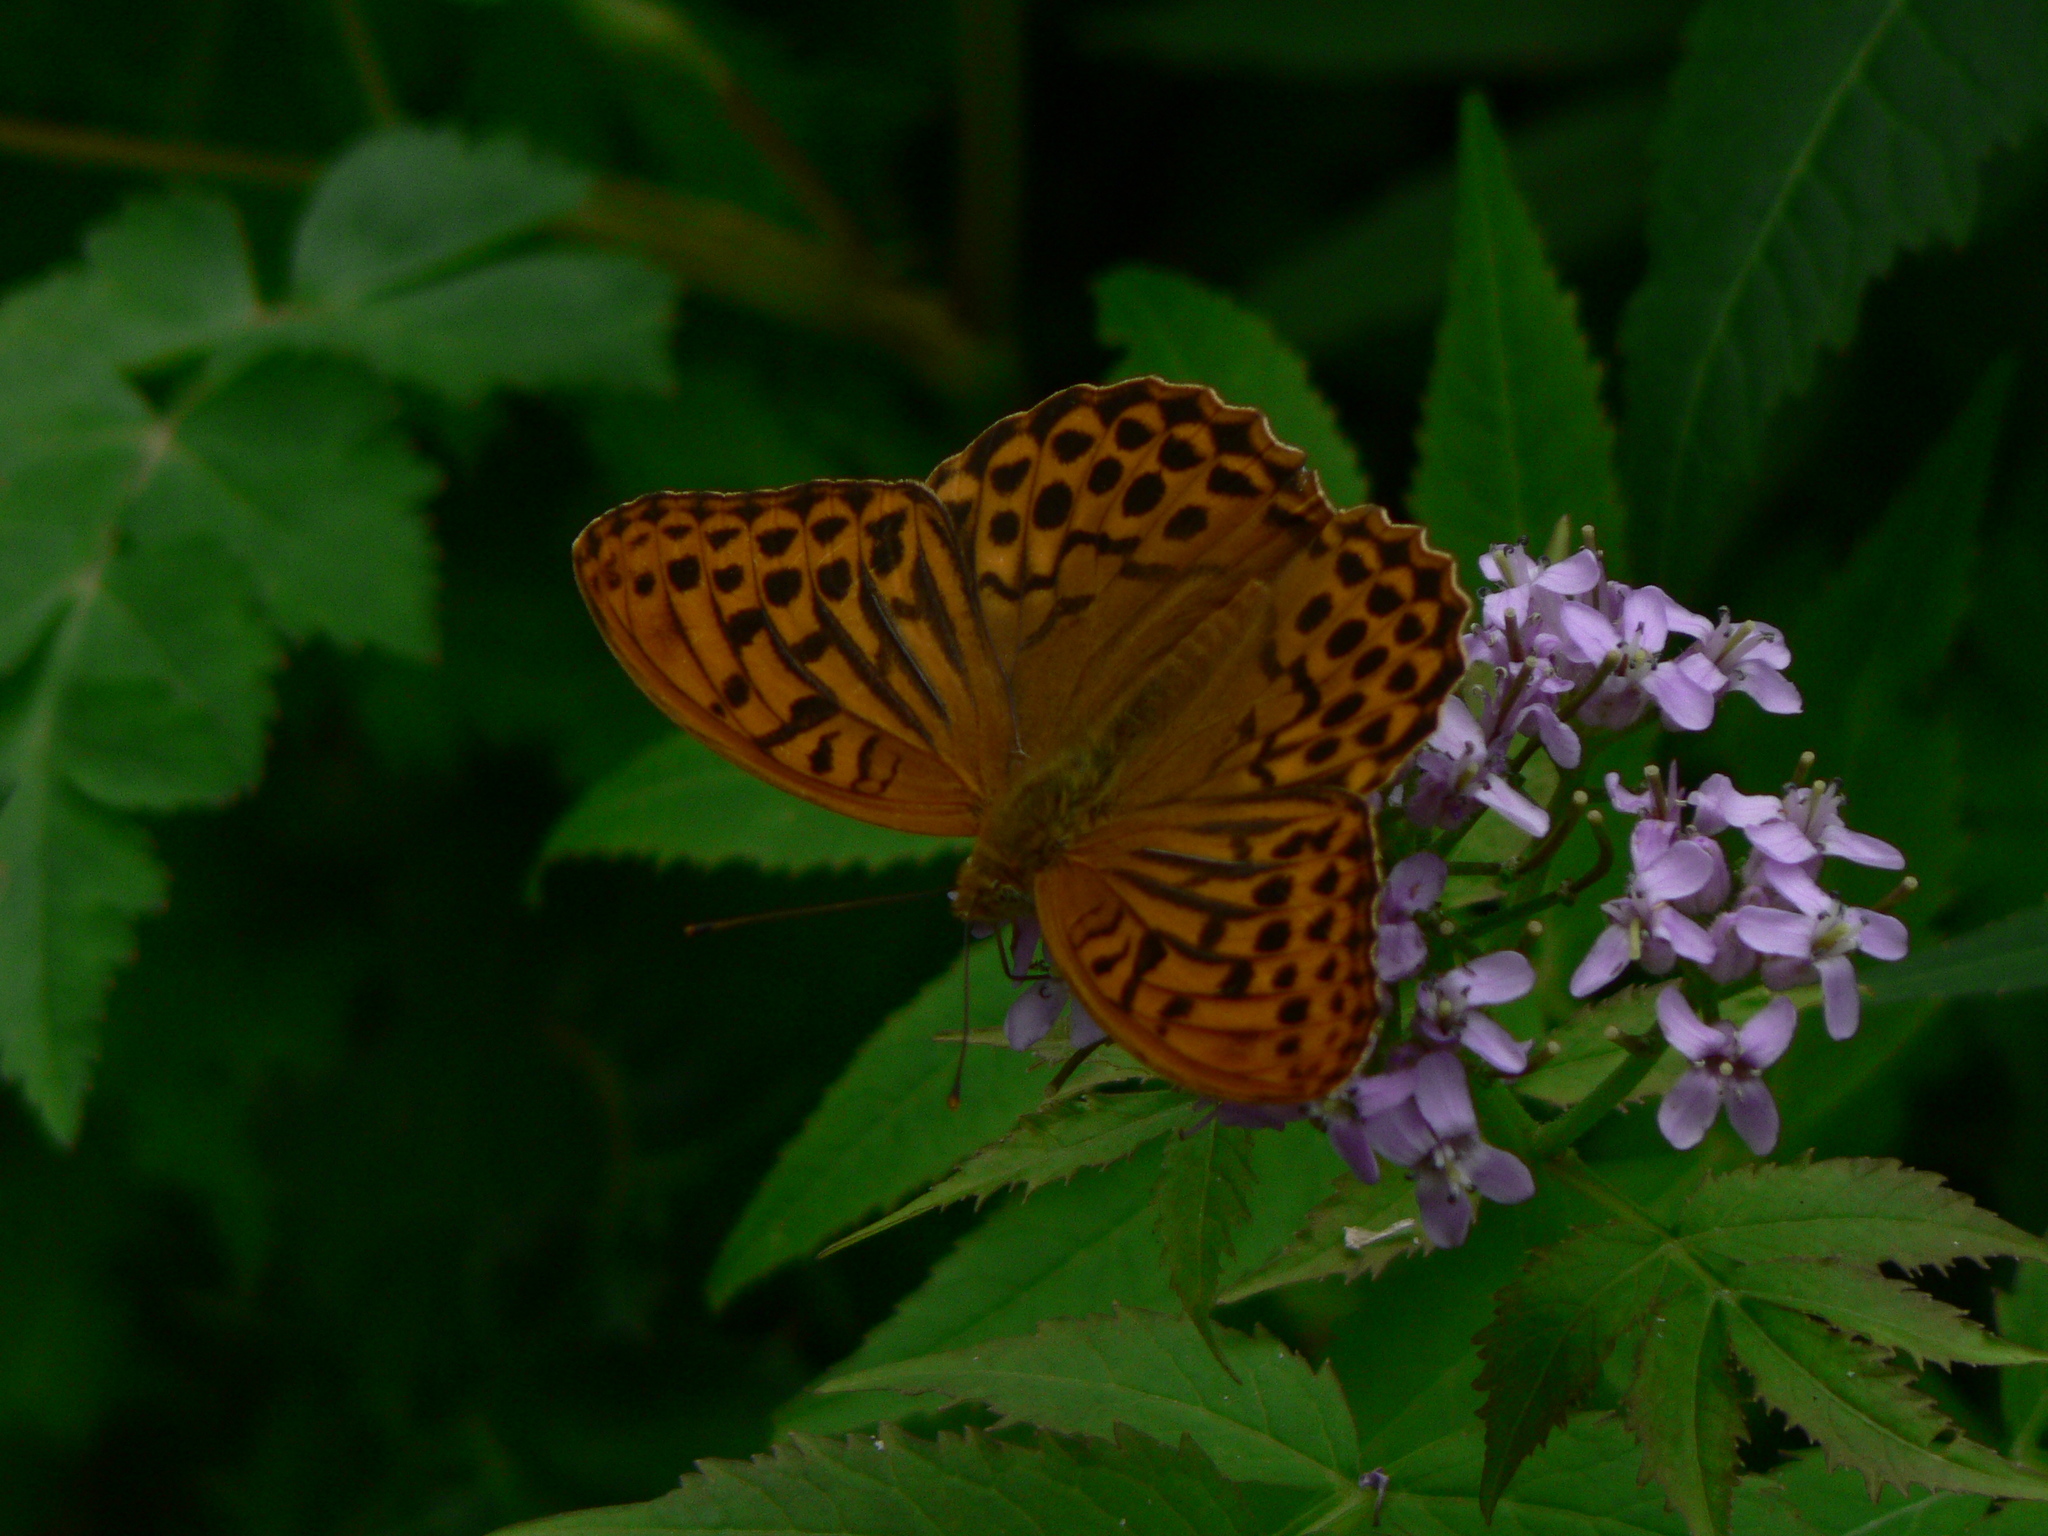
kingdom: Animalia
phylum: Arthropoda
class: Insecta
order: Lepidoptera
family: Nymphalidae
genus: Argynnis
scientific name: Argynnis paphia
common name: Silver-washed fritillary
